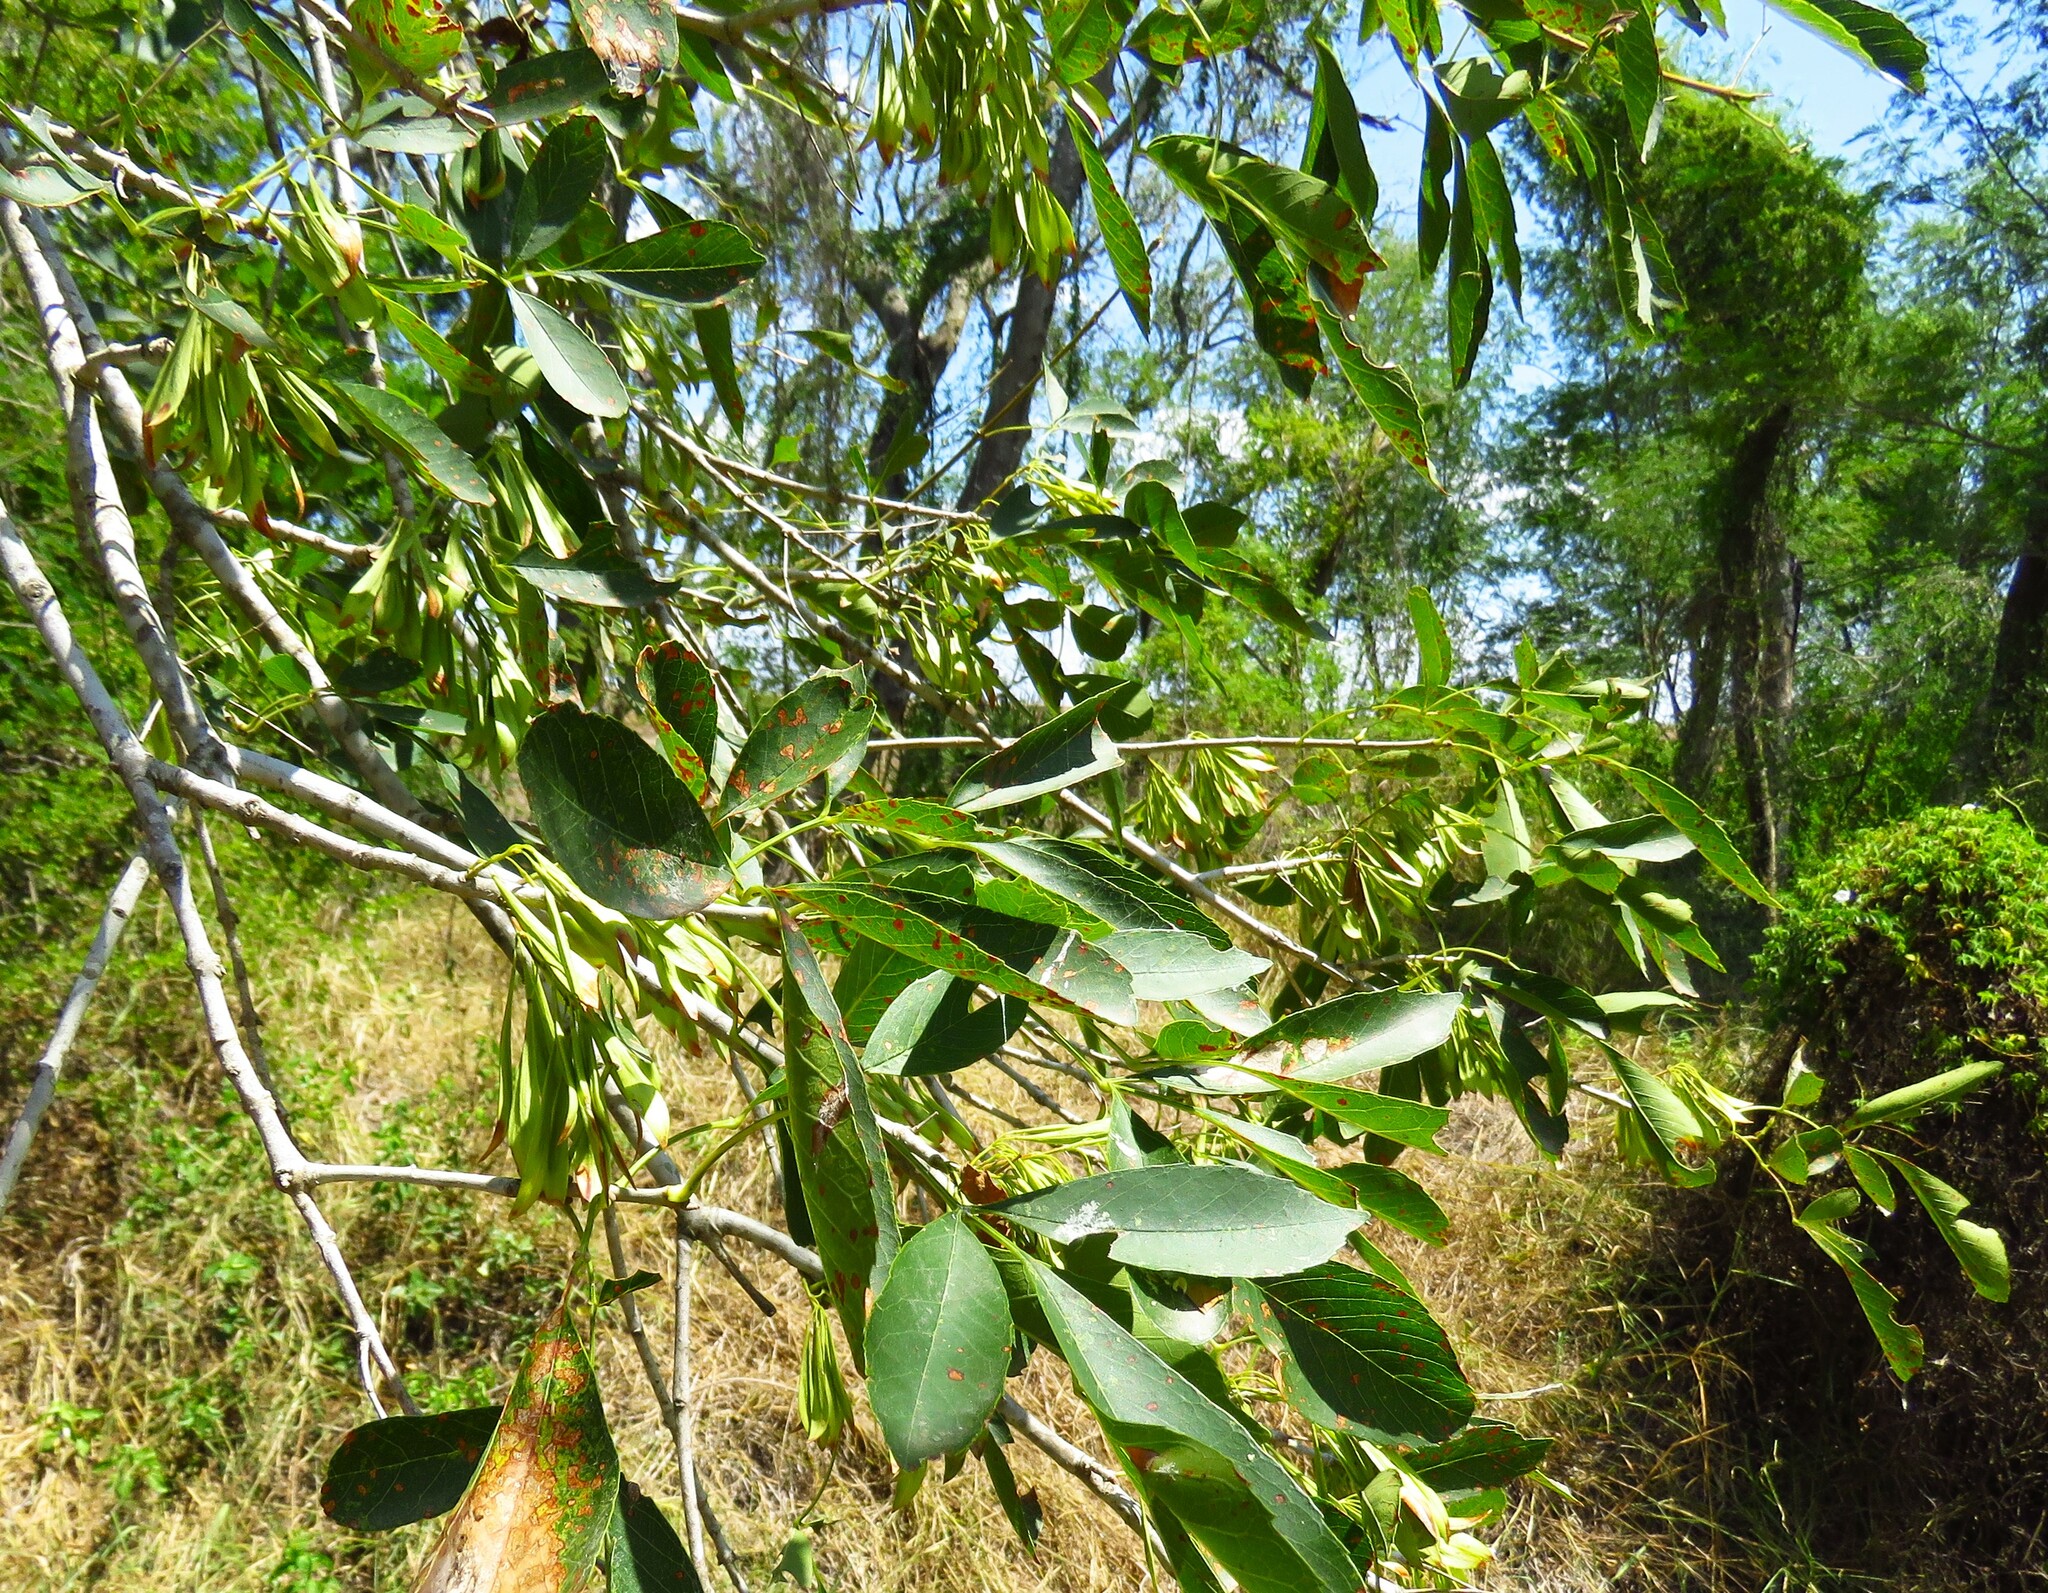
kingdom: Plantae
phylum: Tracheophyta
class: Magnoliopsida
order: Lamiales
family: Oleaceae
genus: Fraxinus
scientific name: Fraxinus berlandieriana
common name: Berlandier ash
